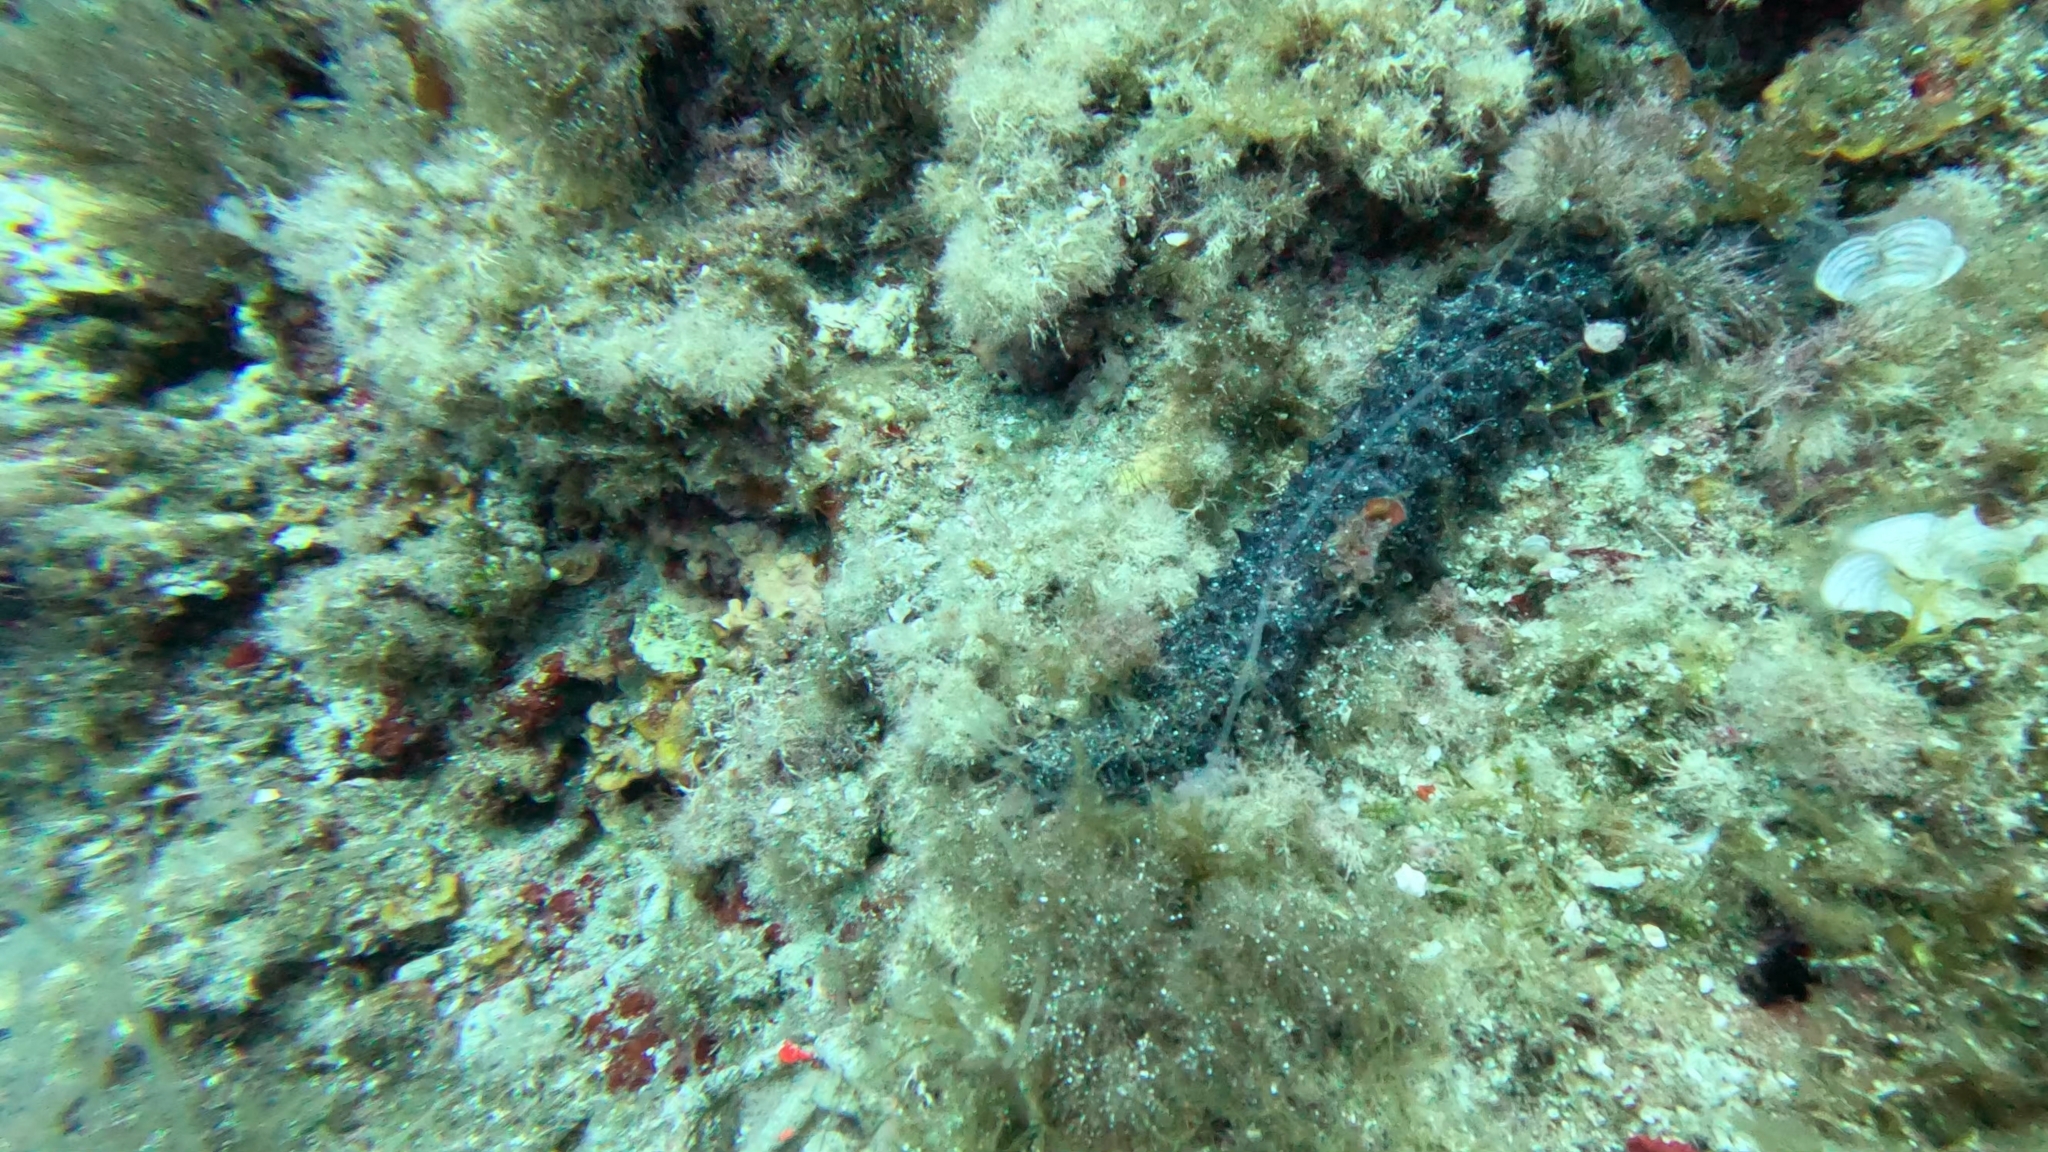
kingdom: Animalia
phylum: Echinodermata
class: Holothuroidea
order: Holothuriida
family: Holothuriidae
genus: Holothuria
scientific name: Holothuria tubulosa
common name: Cotton-spinner
